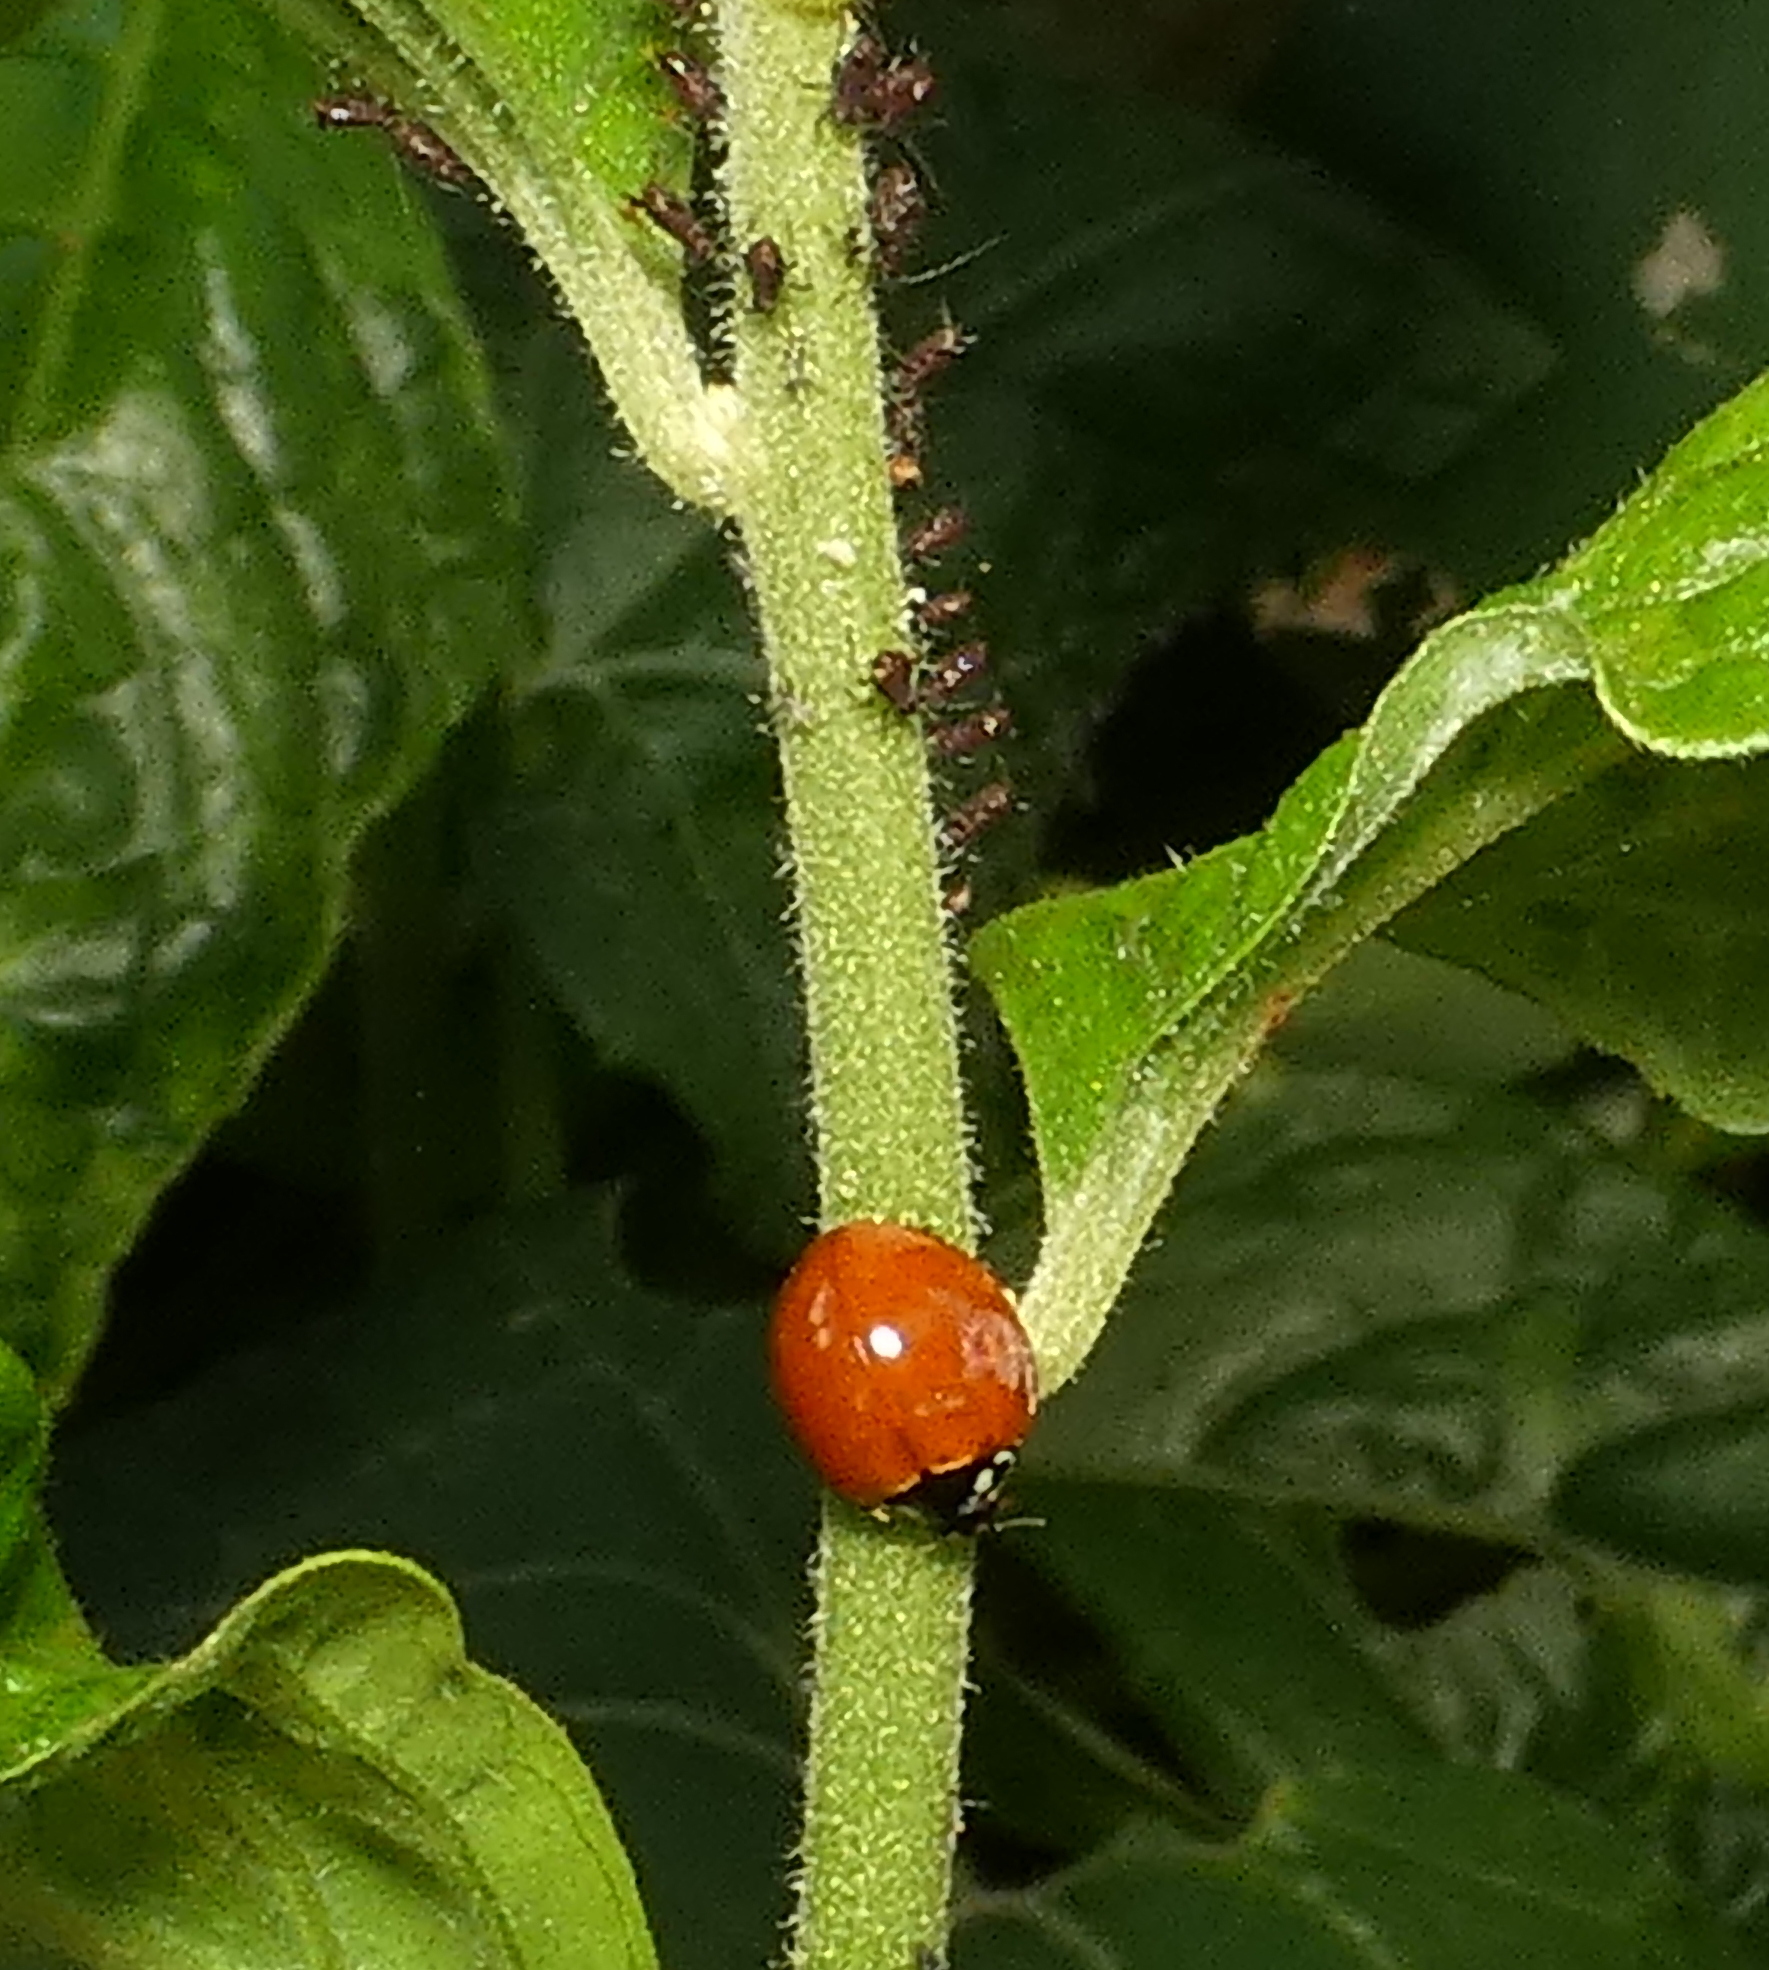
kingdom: Animalia
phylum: Arthropoda
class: Insecta
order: Coleoptera
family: Coccinellidae
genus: Cycloneda
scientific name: Cycloneda sanguinea
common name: Ladybird beetle
